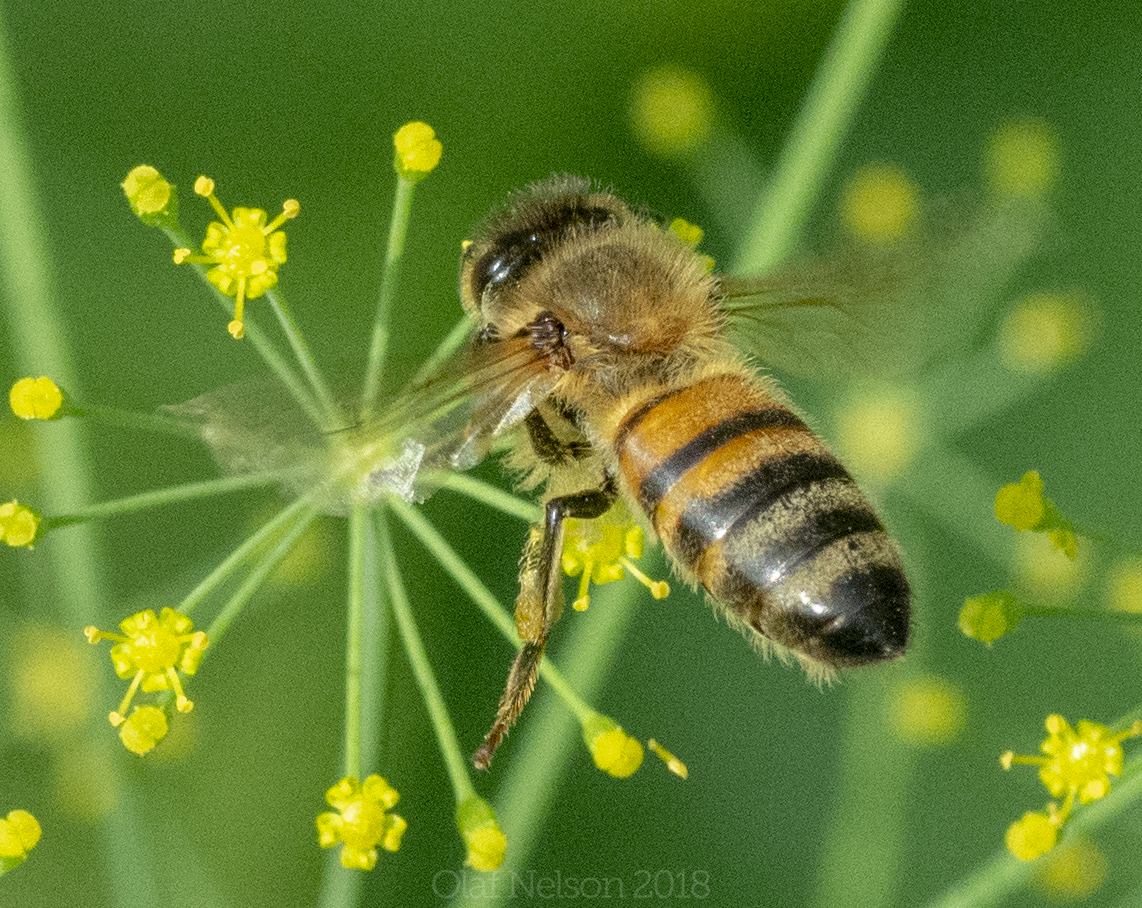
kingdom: Animalia
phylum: Arthropoda
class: Insecta
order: Hymenoptera
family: Apidae
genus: Apis
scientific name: Apis mellifera
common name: Honey bee
